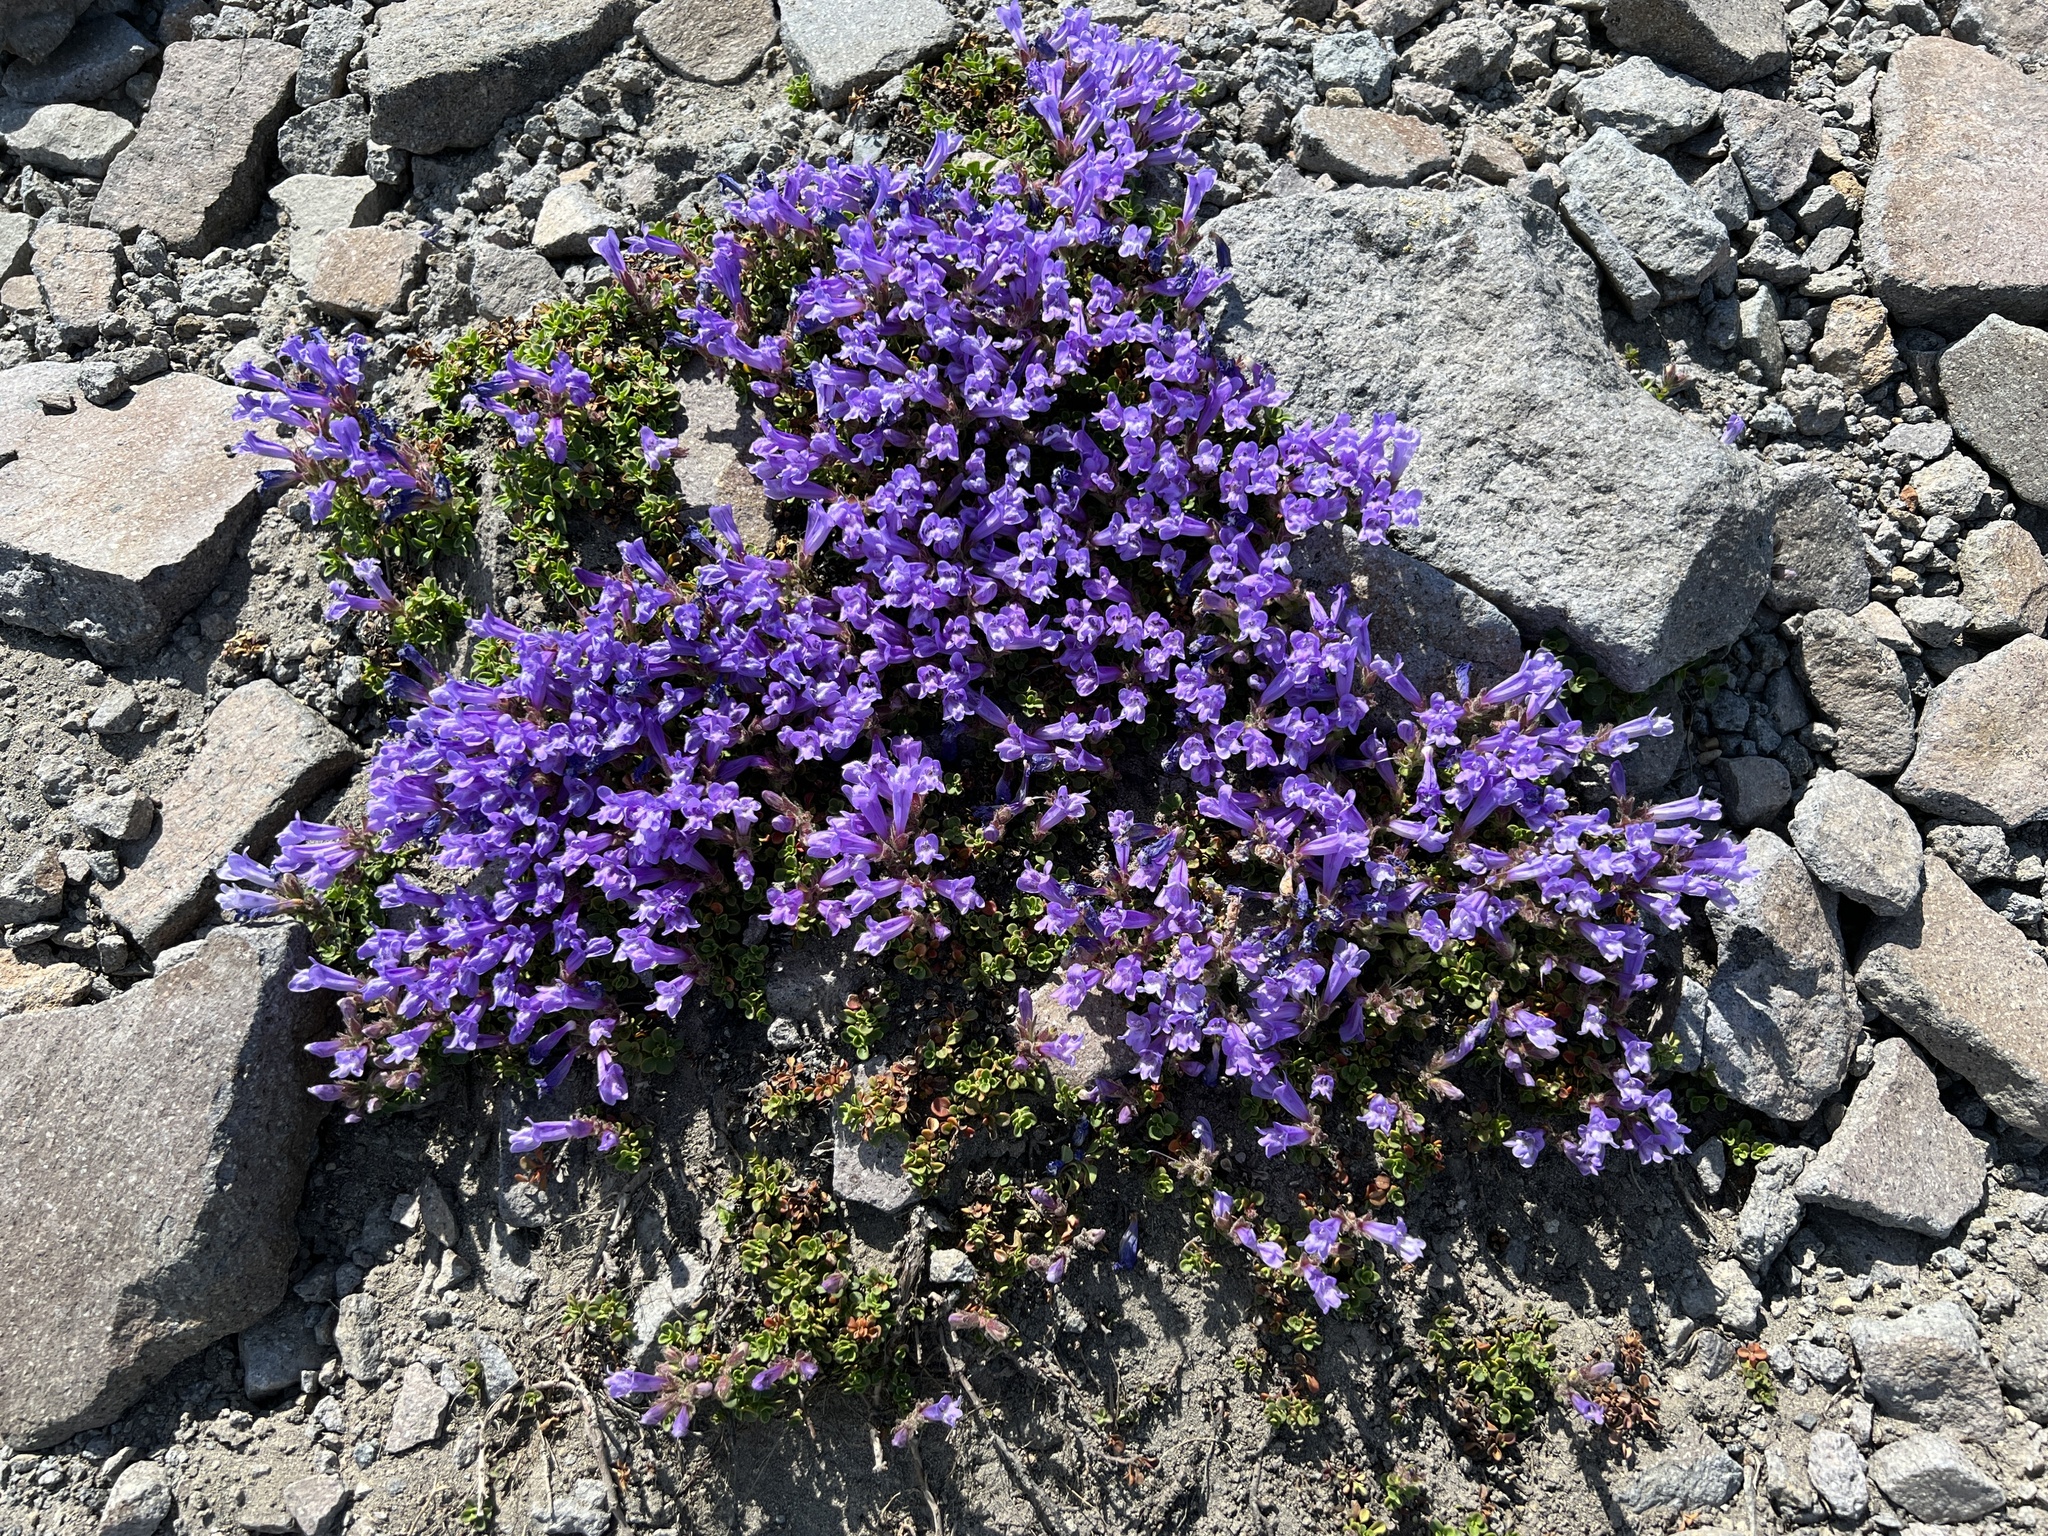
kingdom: Plantae
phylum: Tracheophyta
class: Magnoliopsida
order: Lamiales
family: Plantaginaceae
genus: Penstemon
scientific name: Penstemon davidsonii
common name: Davidson's penstemon
